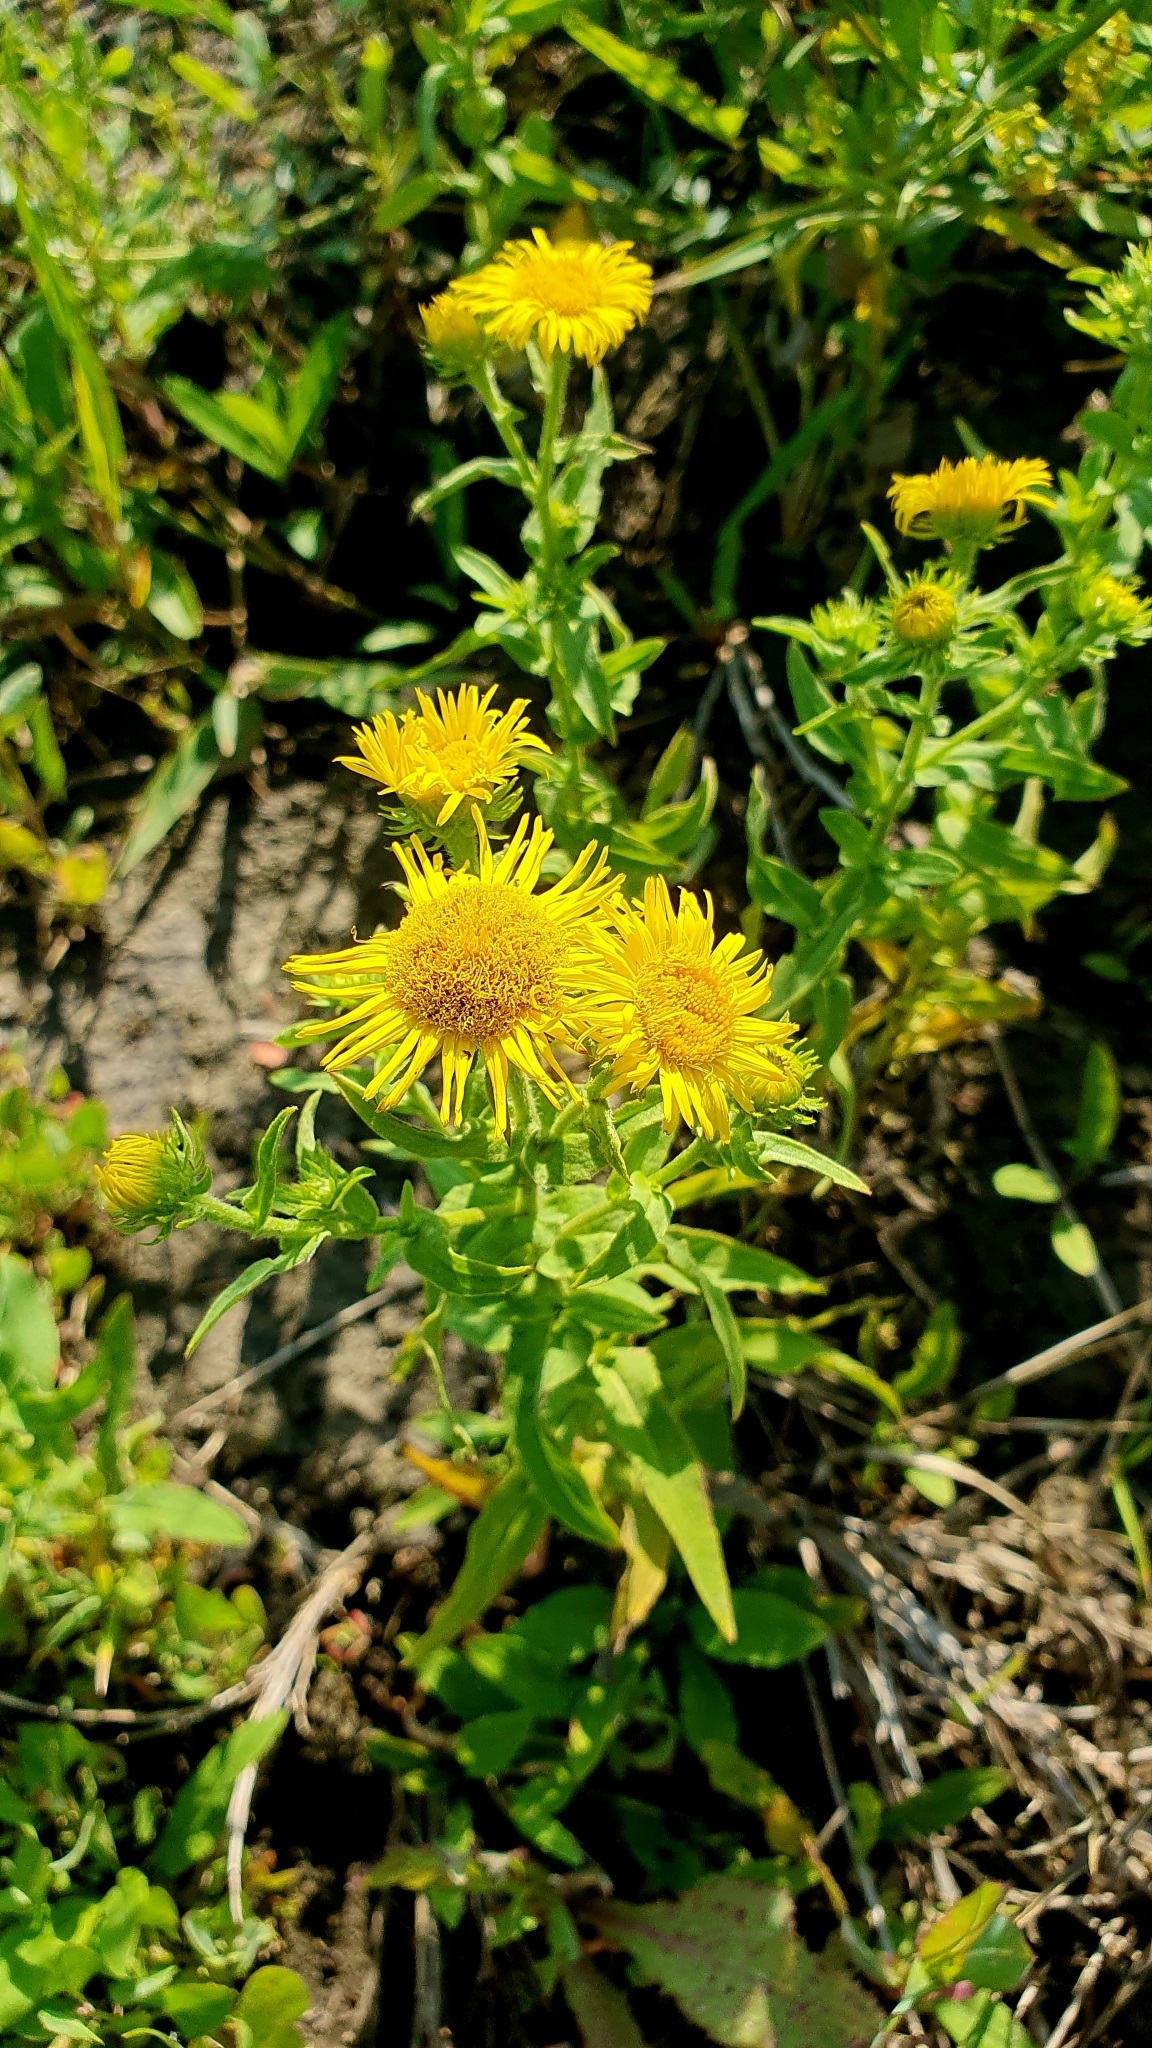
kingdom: Plantae
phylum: Tracheophyta
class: Magnoliopsida
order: Asterales
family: Asteraceae
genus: Pentanema
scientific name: Pentanema britannicum
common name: British elecampane
